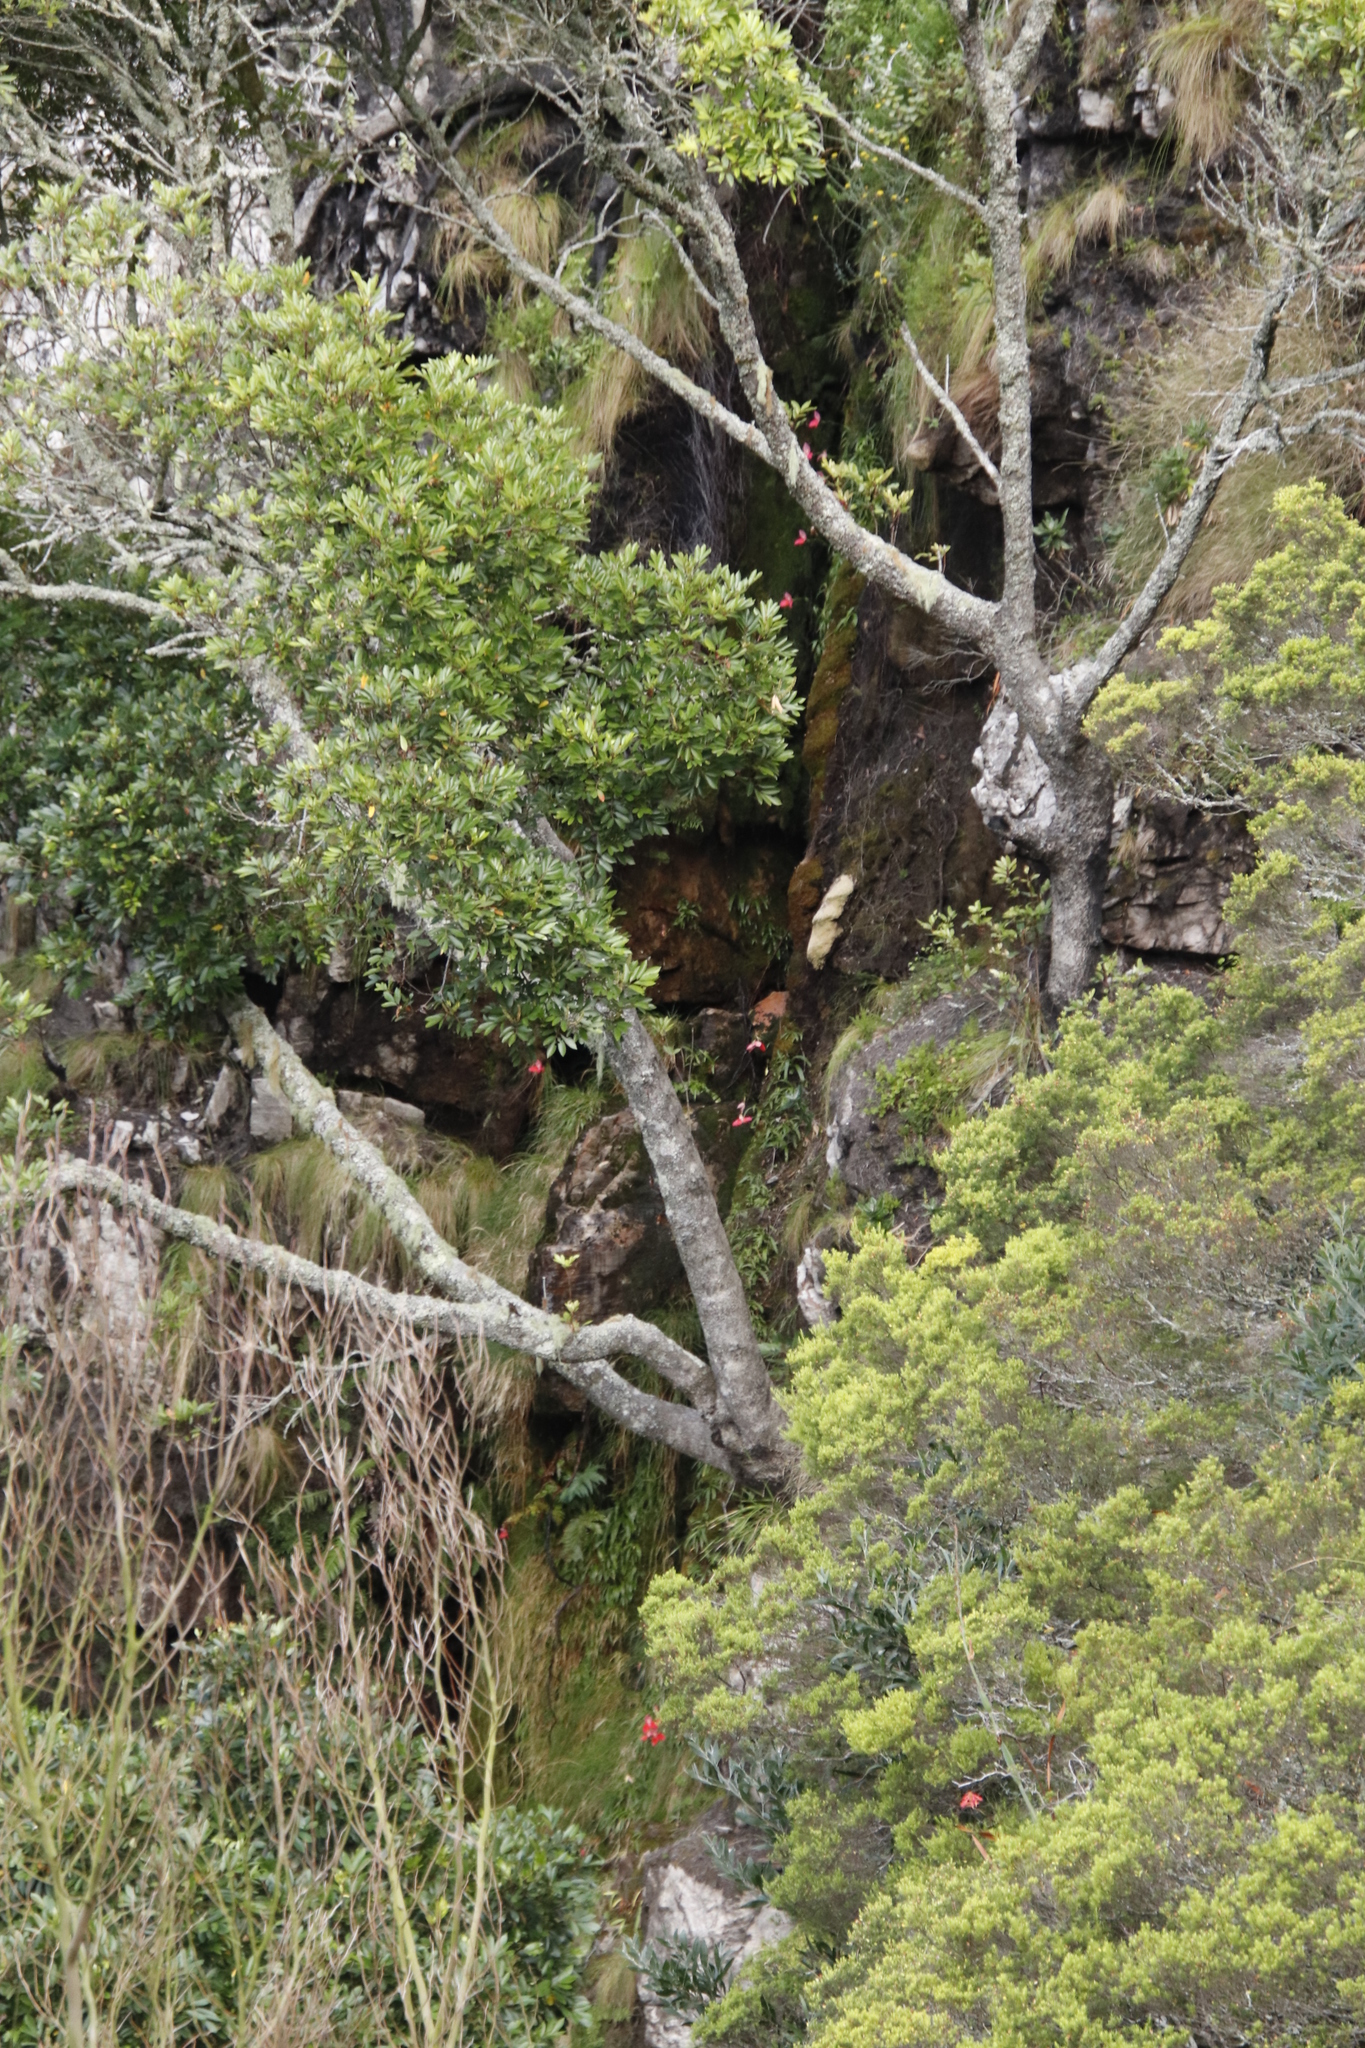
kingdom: Plantae
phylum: Tracheophyta
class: Magnoliopsida
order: Oxalidales
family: Cunoniaceae
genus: Cunonia
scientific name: Cunonia capensis
